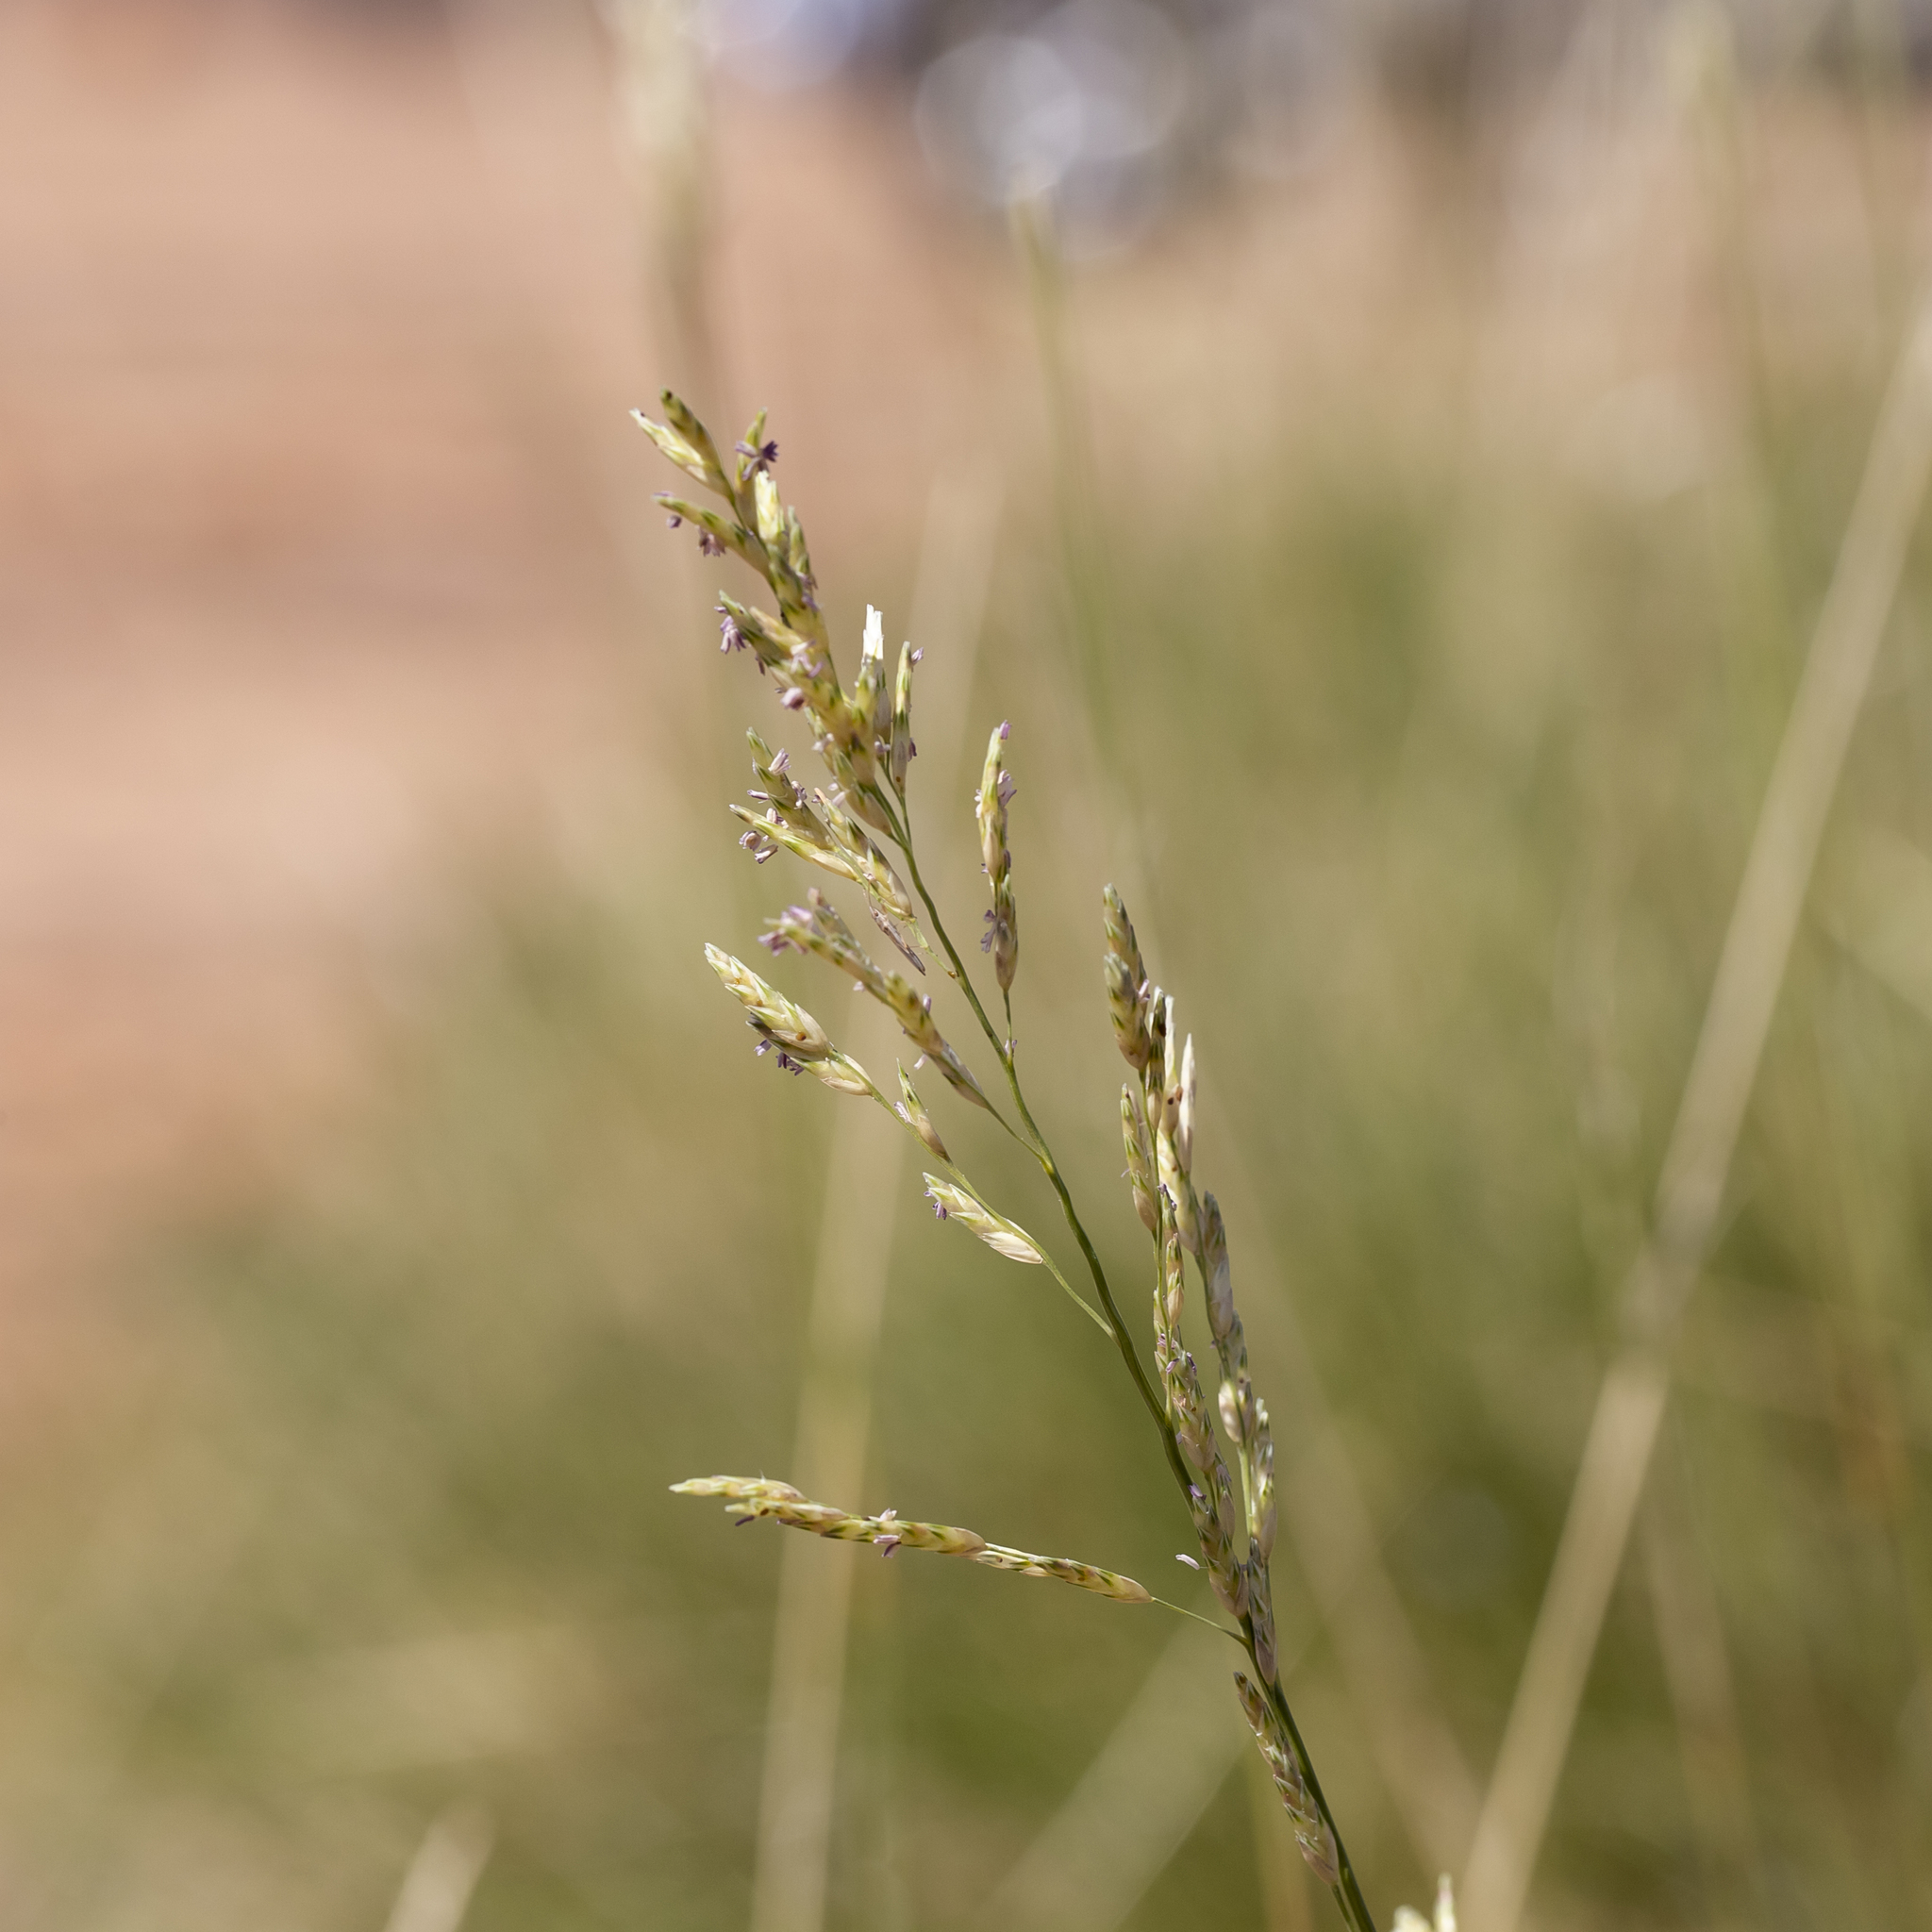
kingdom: Plantae
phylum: Tracheophyta
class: Liliopsida
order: Poales
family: Poaceae
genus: Triodia
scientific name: Triodia pungens
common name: Soft spinifex
